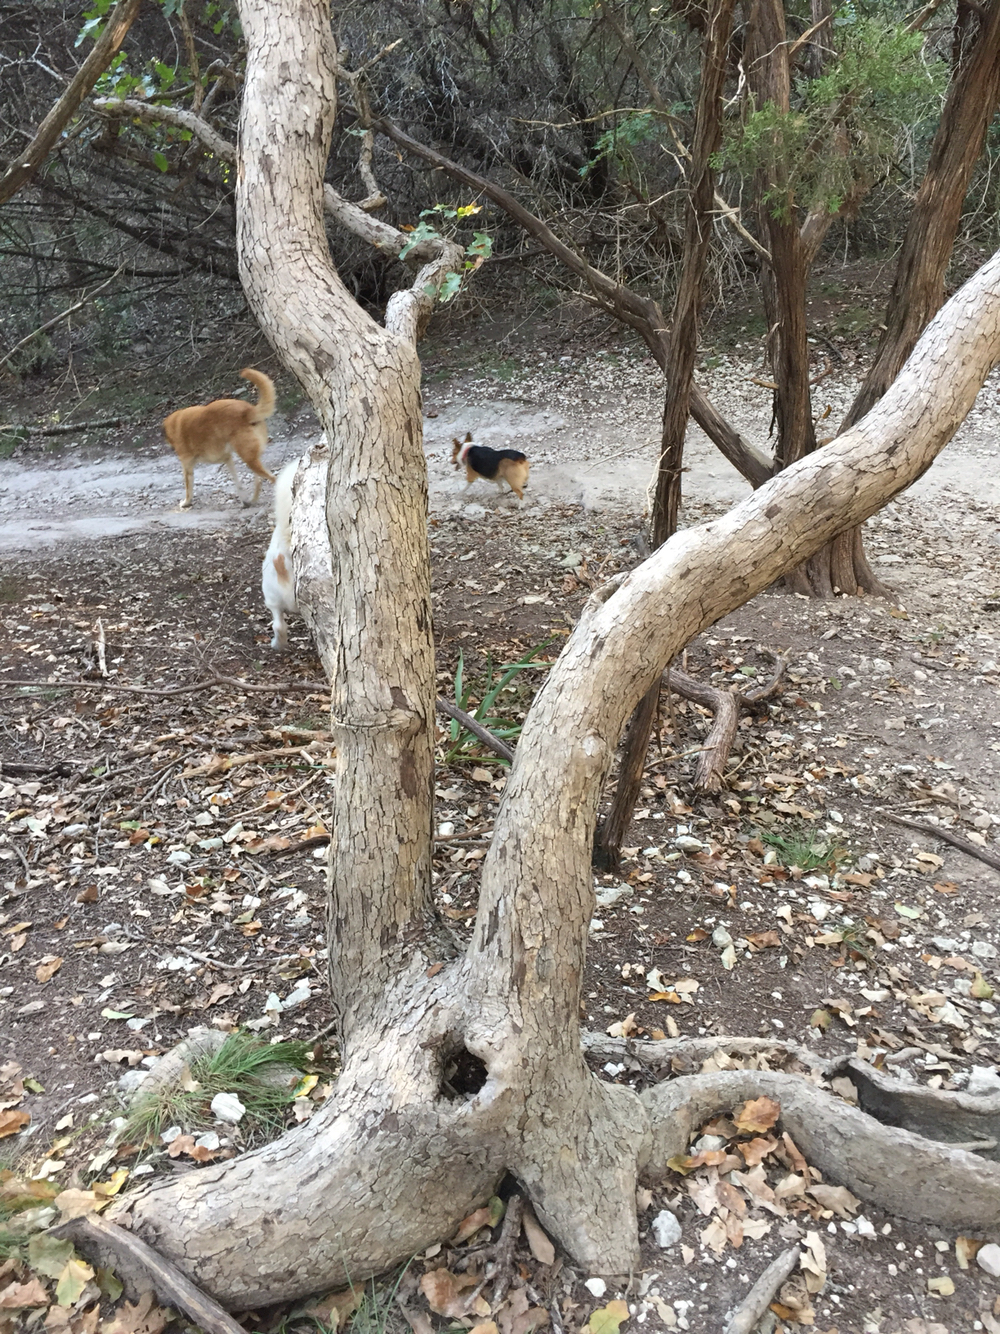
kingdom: Plantae
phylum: Tracheophyta
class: Magnoliopsida
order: Fagales
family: Fagaceae
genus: Quercus
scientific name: Quercus sinuata
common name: Durand oak
